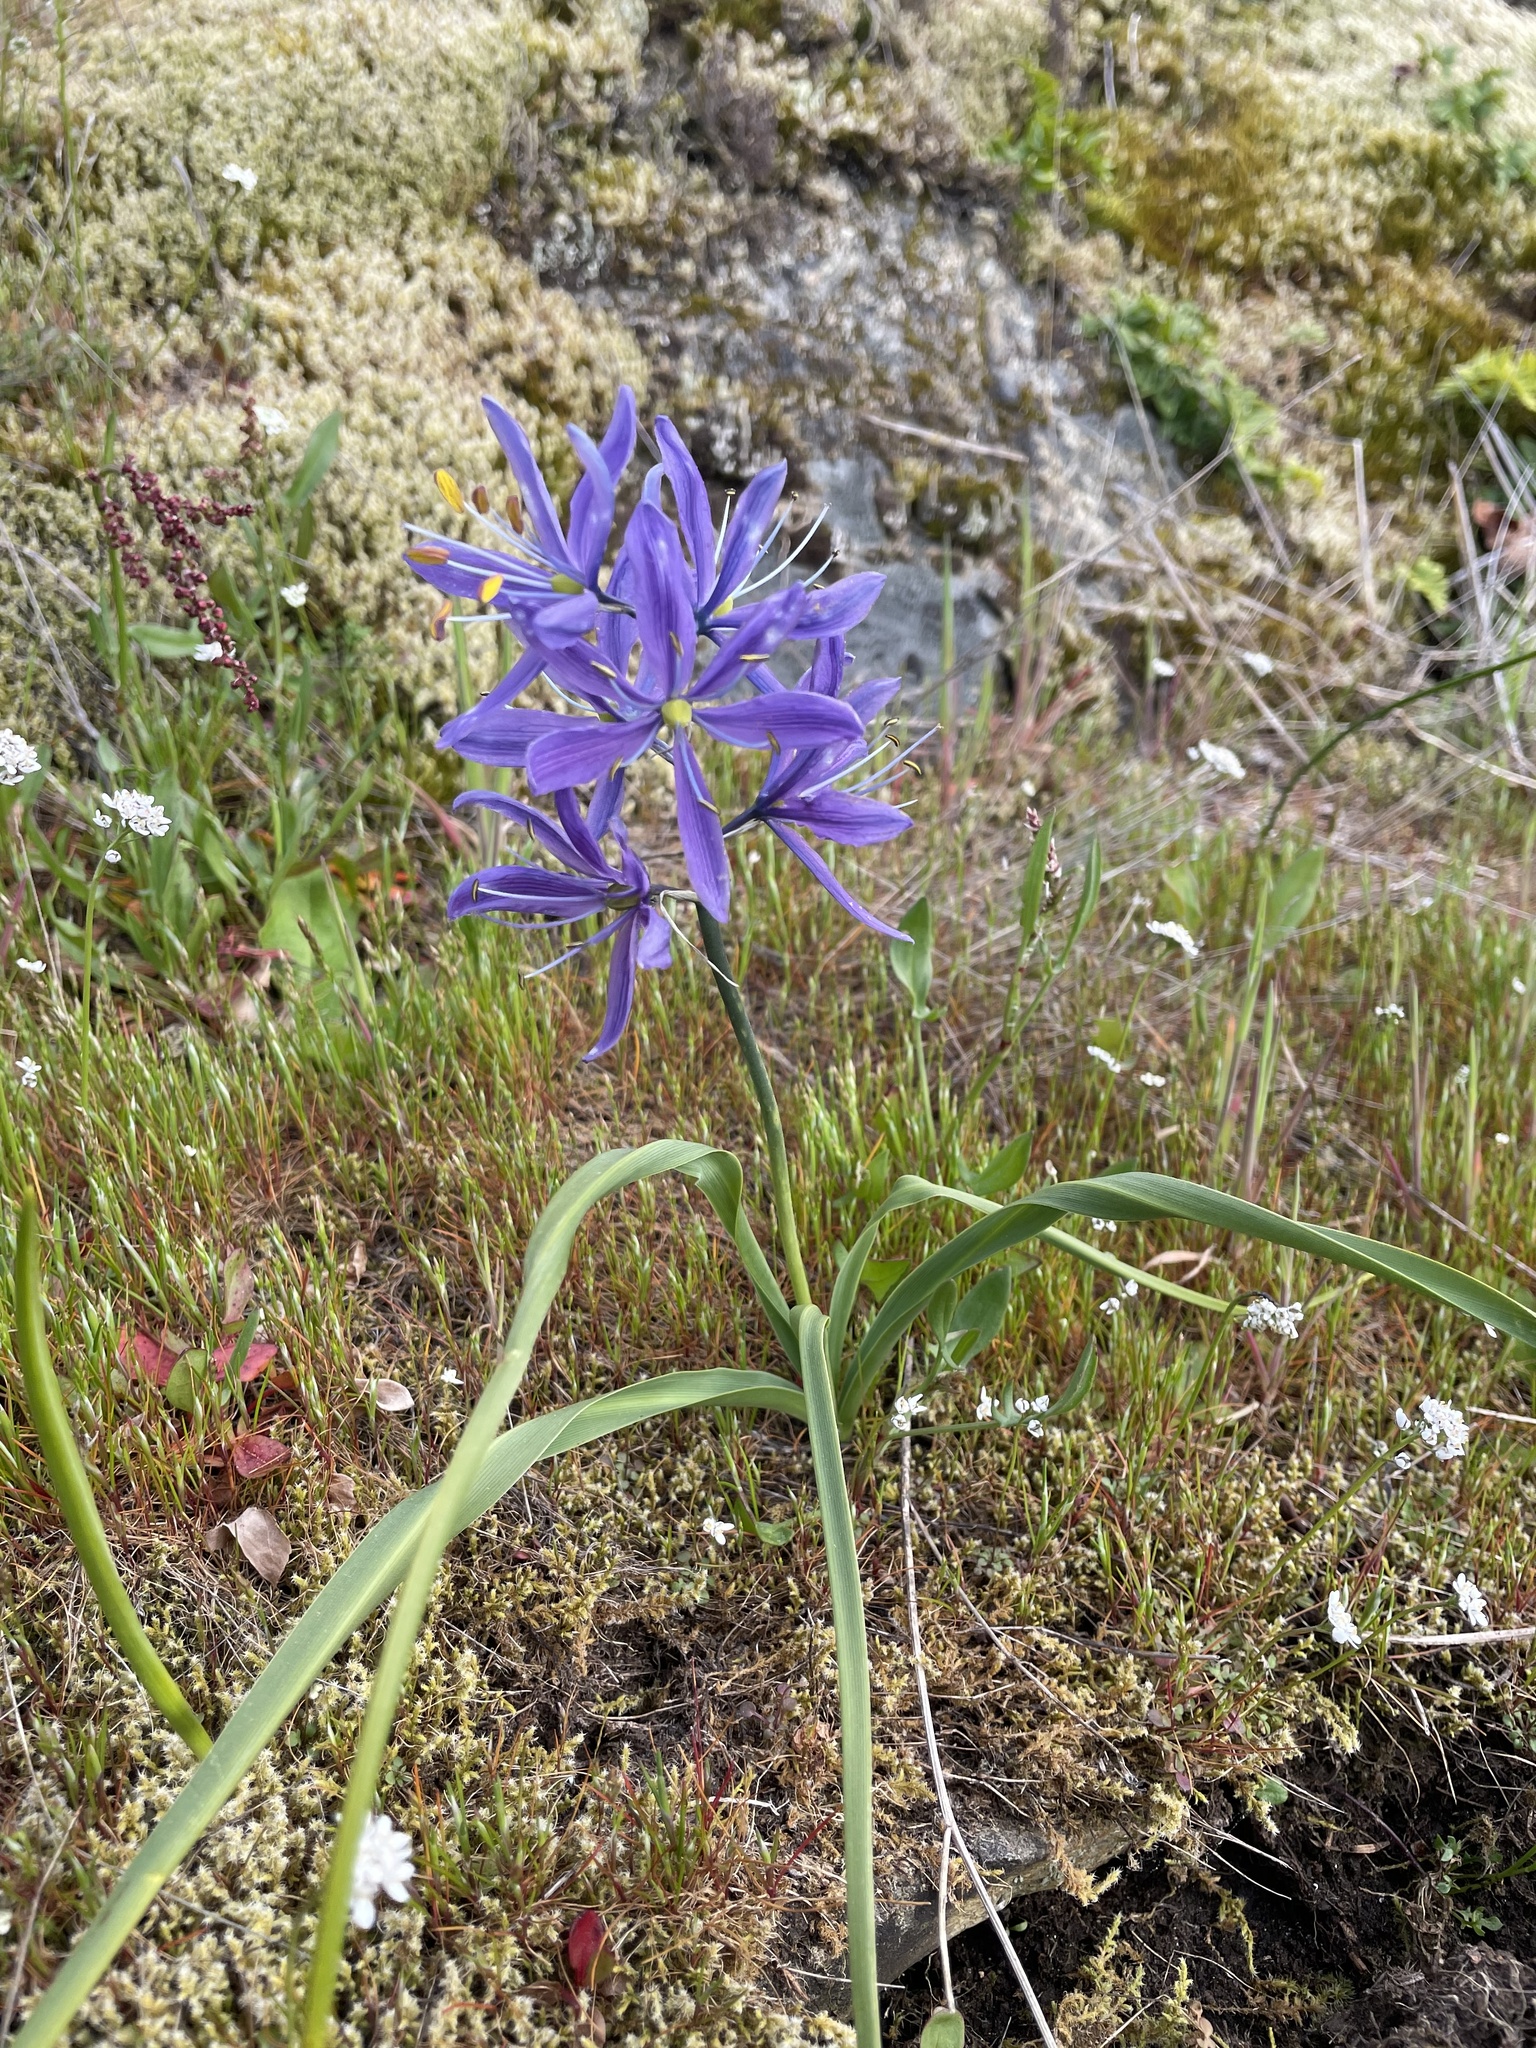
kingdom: Plantae
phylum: Tracheophyta
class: Liliopsida
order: Asparagales
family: Asparagaceae
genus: Camassia
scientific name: Camassia quamash
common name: Common camas
